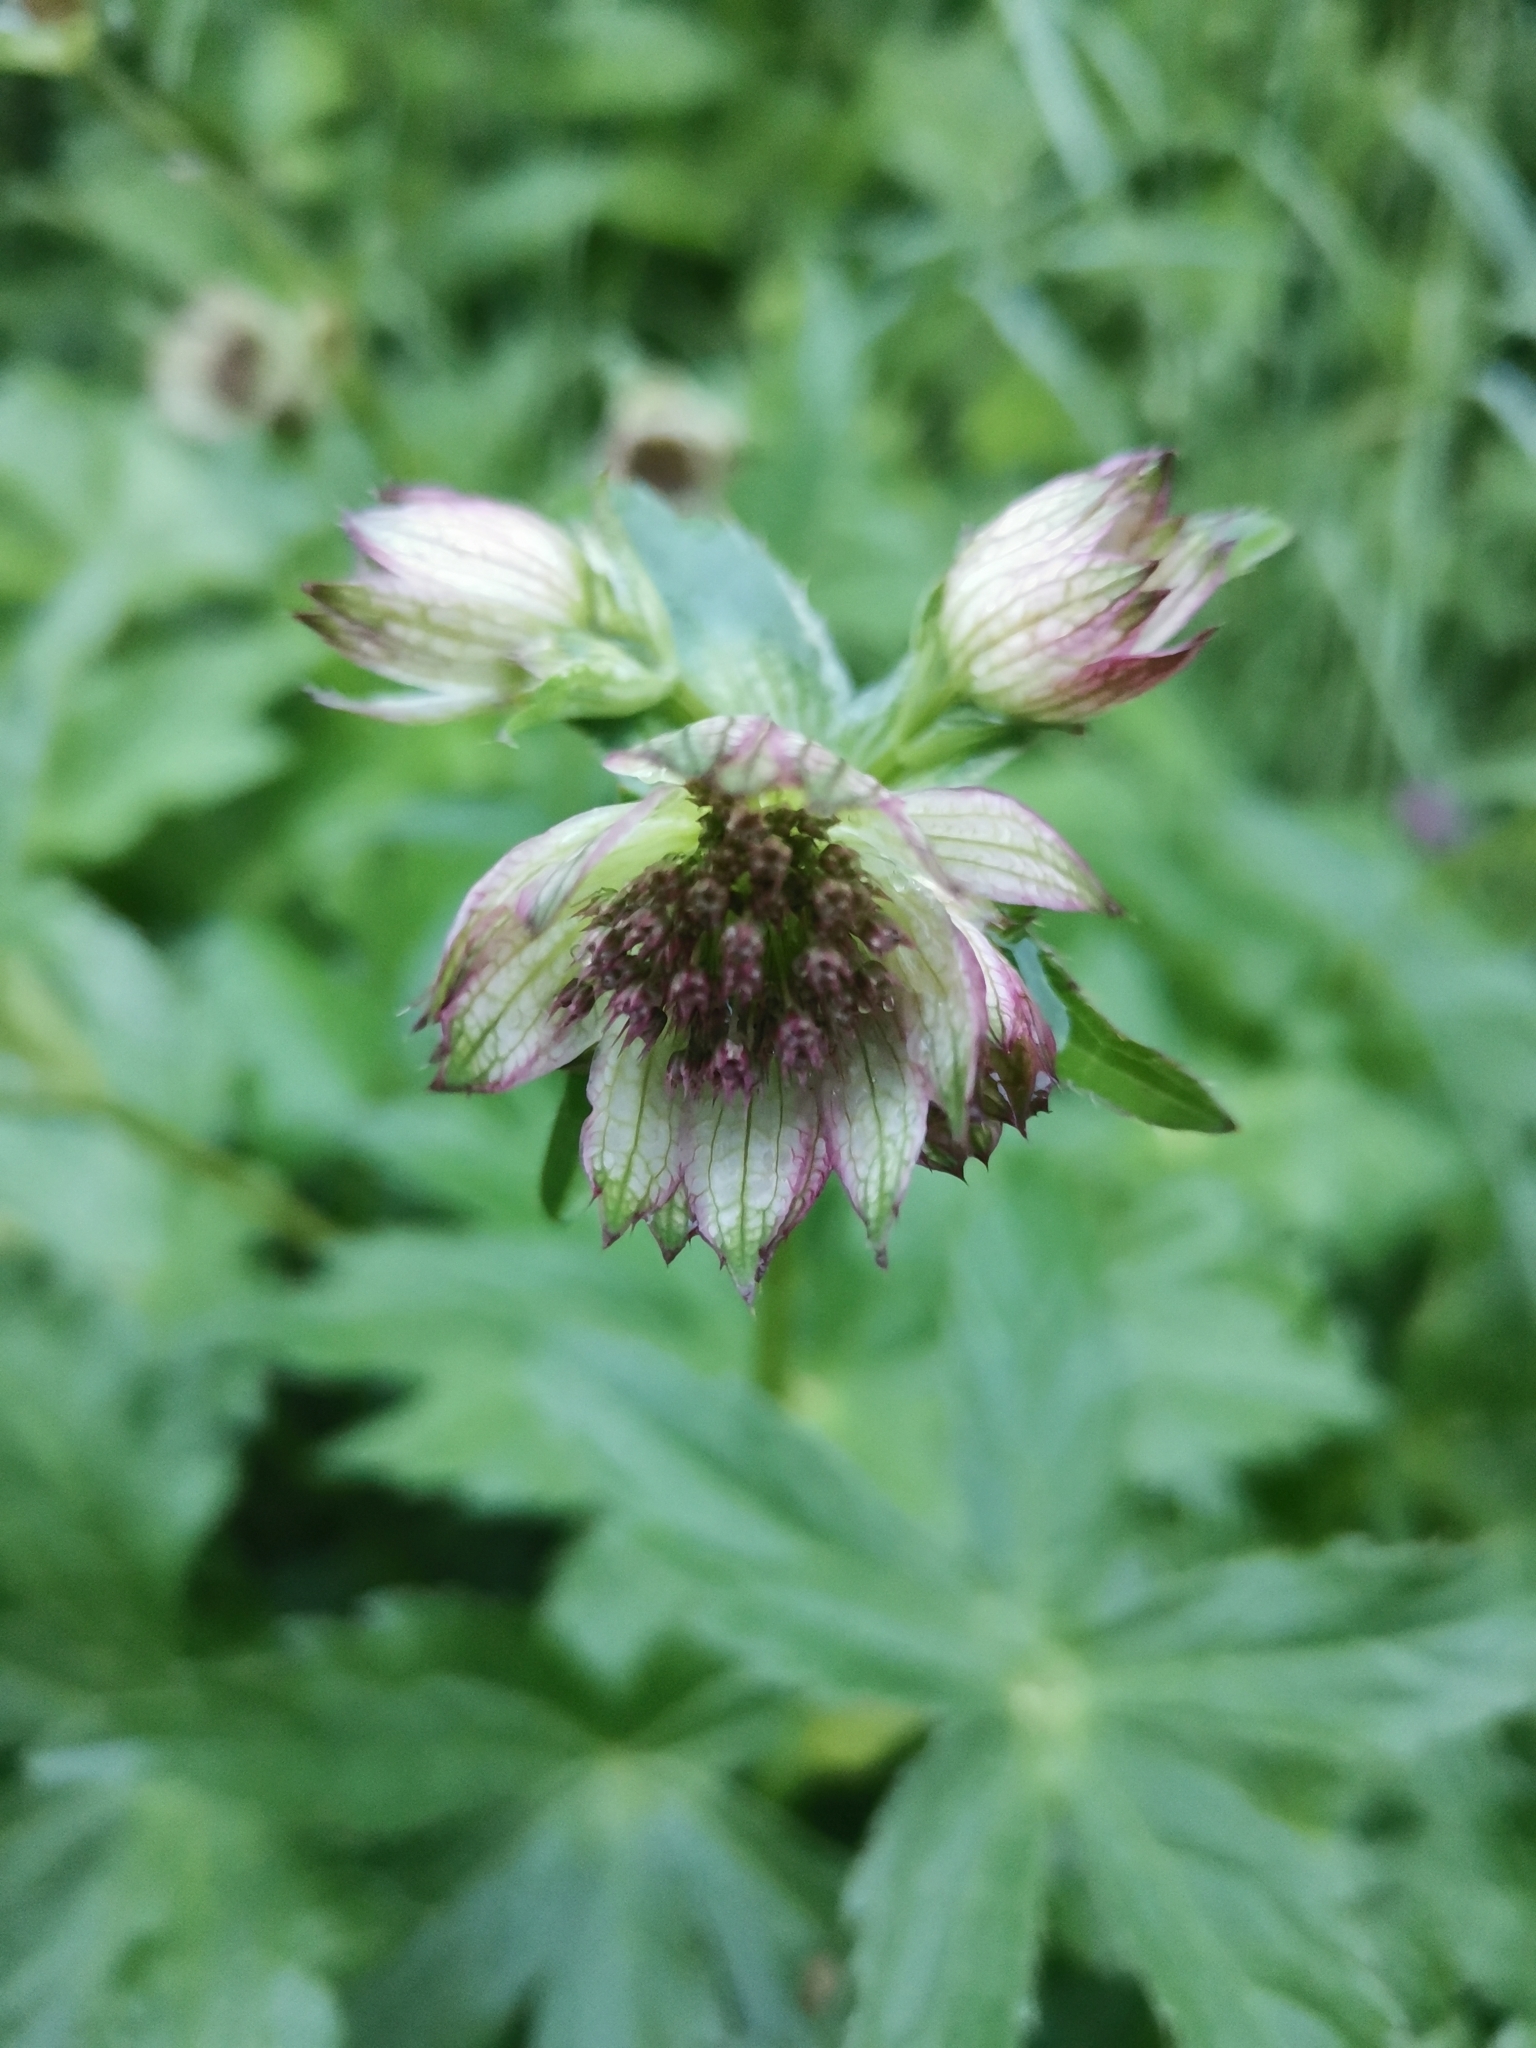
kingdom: Plantae
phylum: Tracheophyta
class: Magnoliopsida
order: Apiales
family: Apiaceae
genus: Astrantia
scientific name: Astrantia major
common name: Greater masterwort
